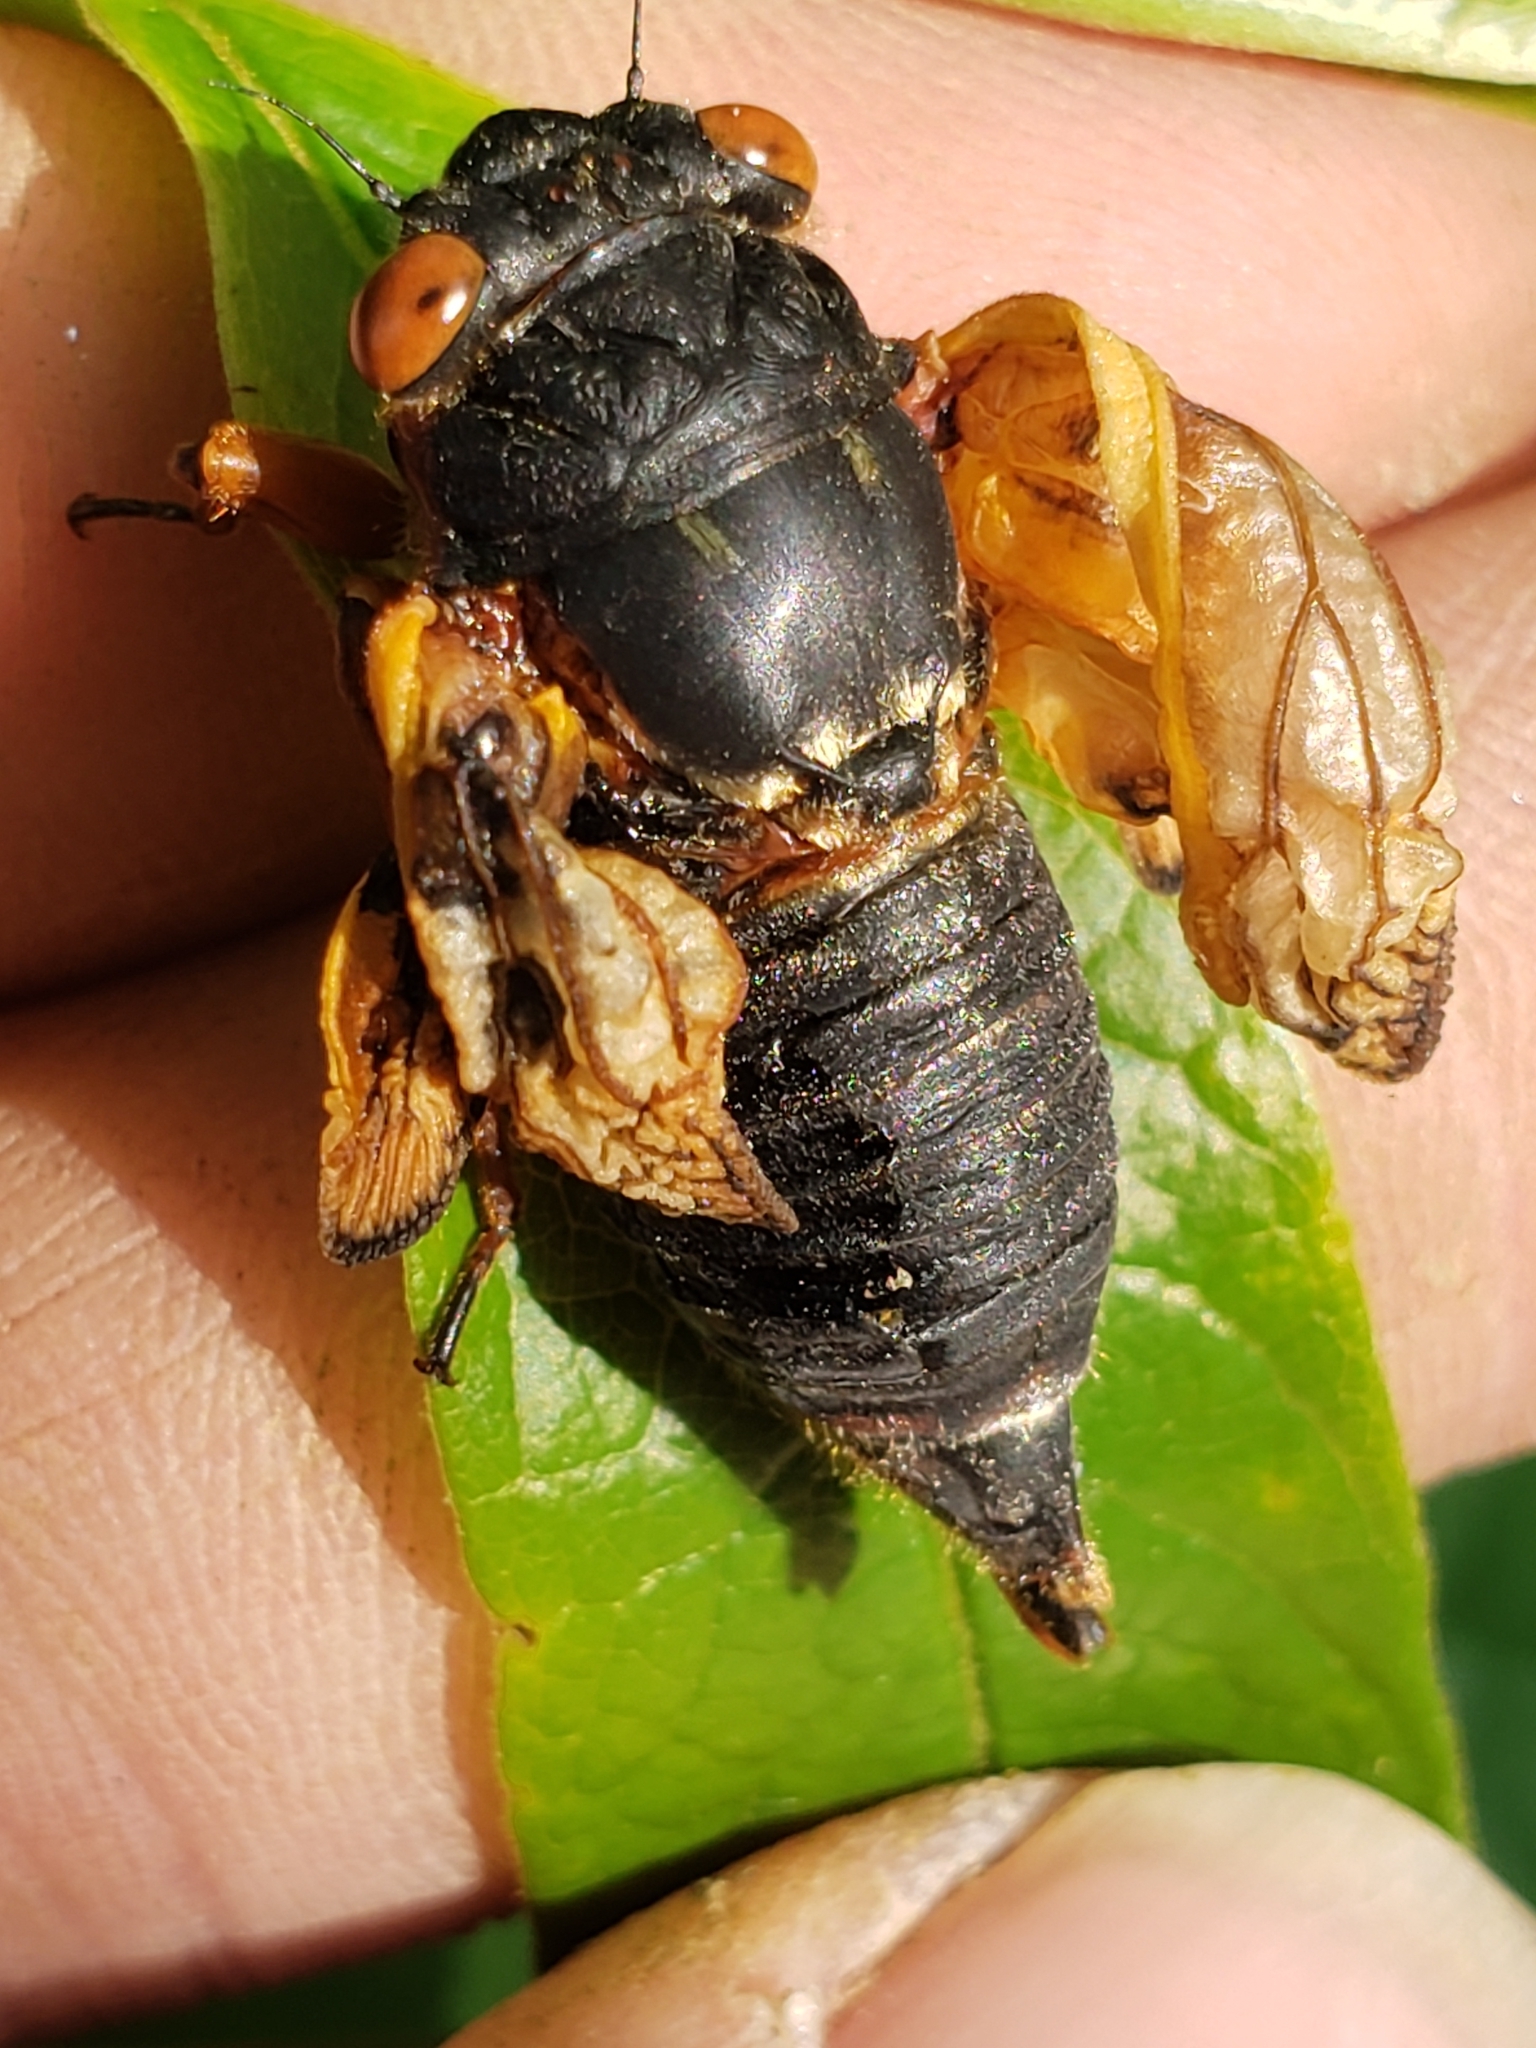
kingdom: Animalia
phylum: Arthropoda
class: Insecta
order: Hemiptera
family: Cicadidae
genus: Magicicada
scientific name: Magicicada septendecim
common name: Periodical cicada
